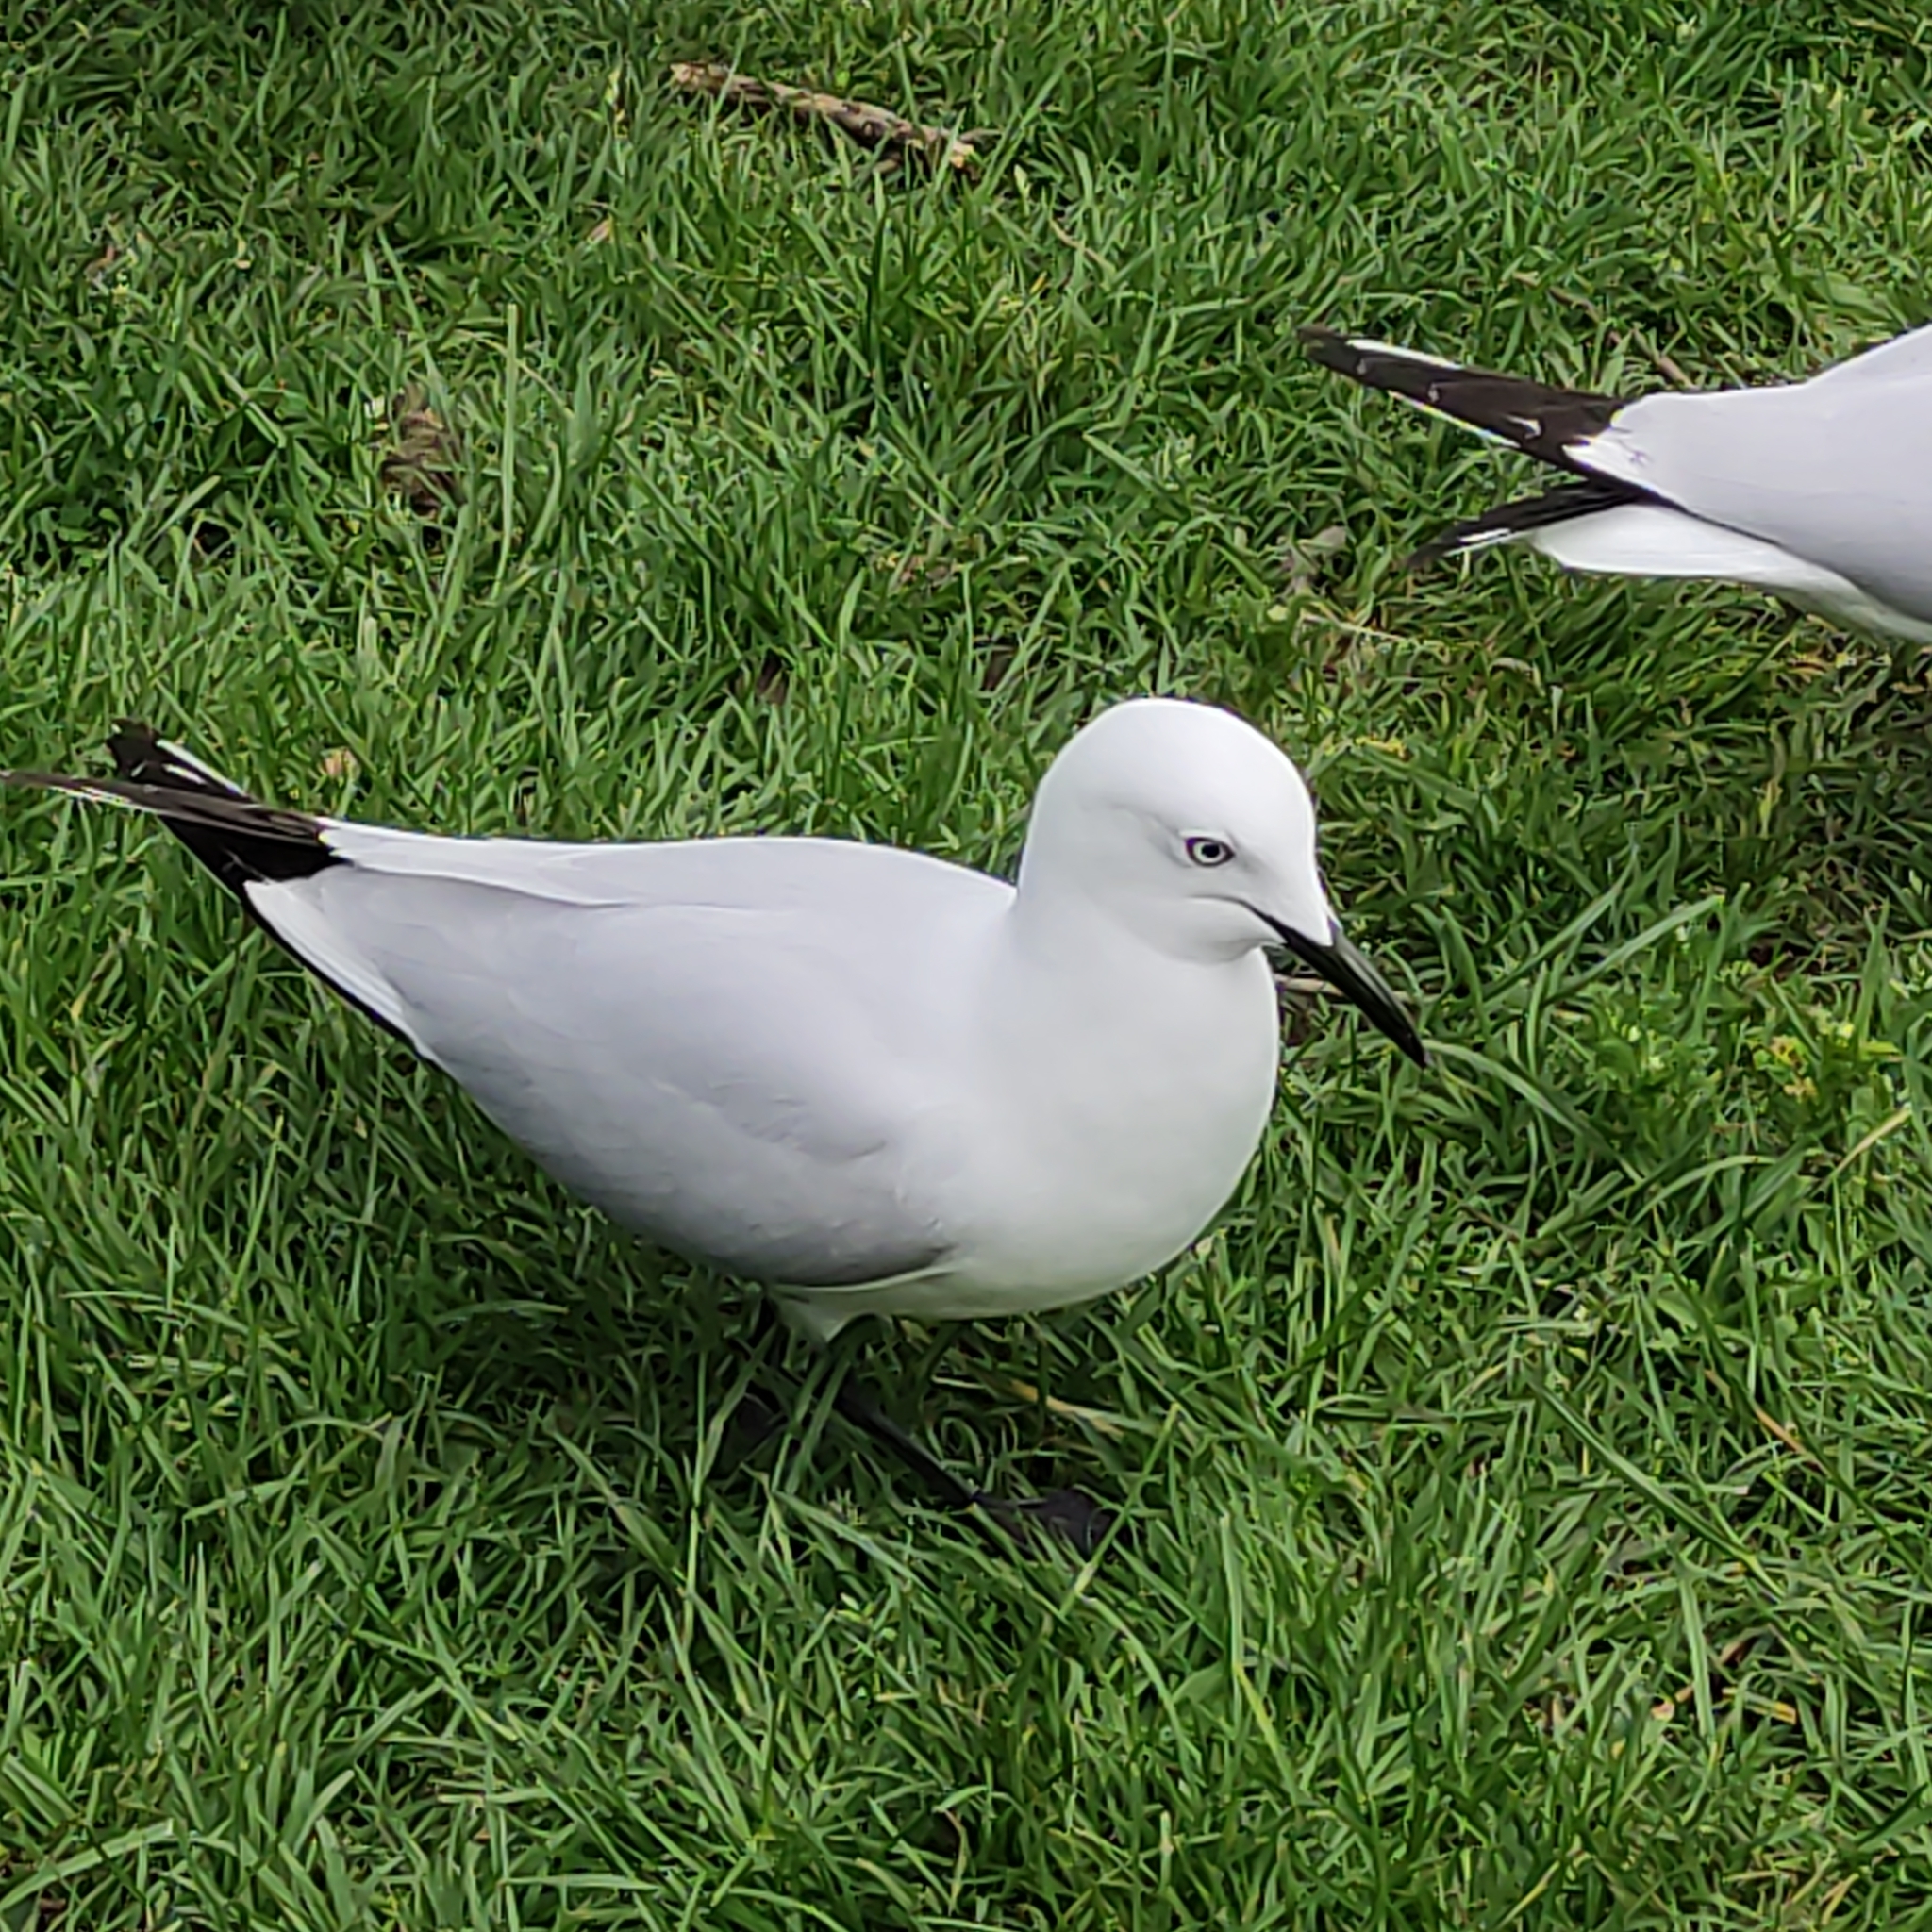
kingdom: Animalia
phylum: Chordata
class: Aves
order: Charadriiformes
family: Laridae
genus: Chroicocephalus
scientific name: Chroicocephalus bulleri
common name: Black-billed gull
